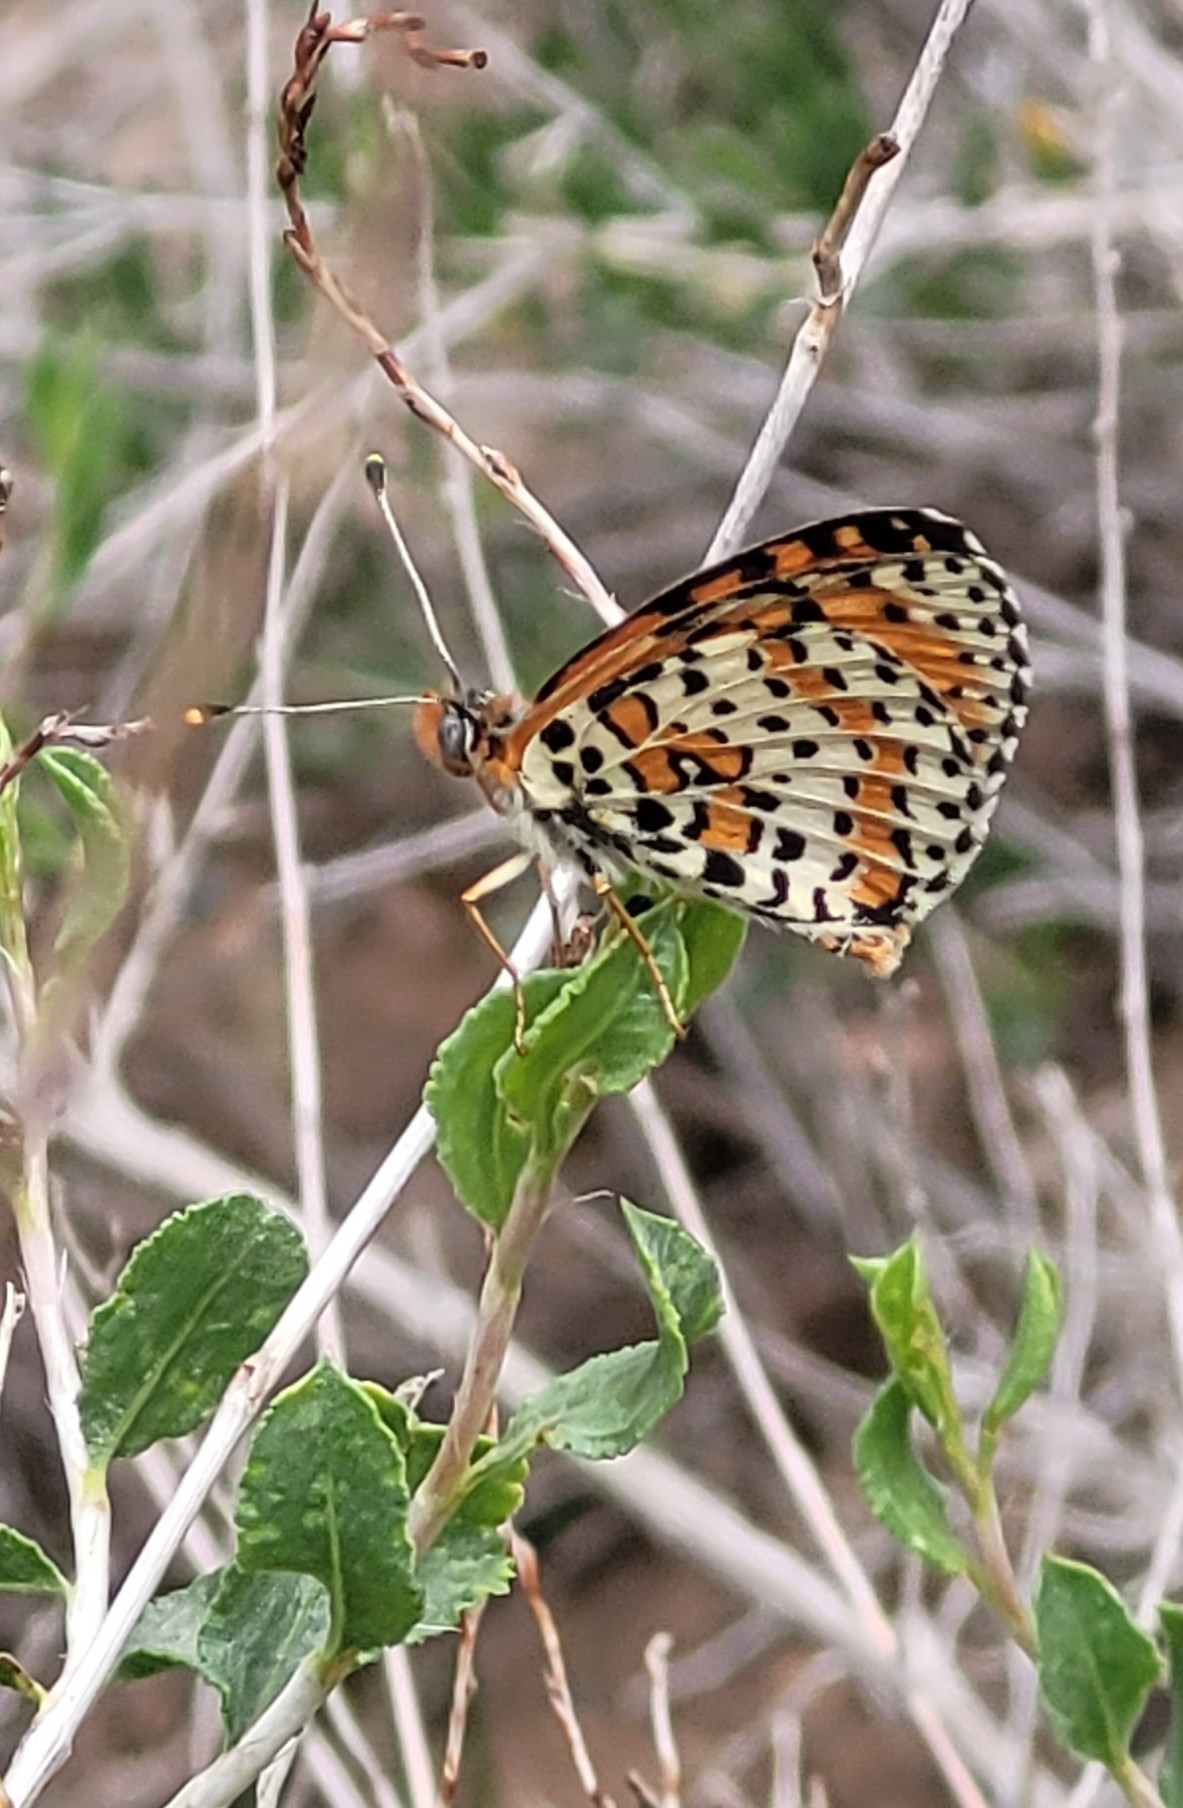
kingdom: Animalia
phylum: Arthropoda
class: Insecta
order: Lepidoptera
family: Nymphalidae
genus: Melitaea
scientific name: Melitaea didyma
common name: Spotted fritillary
